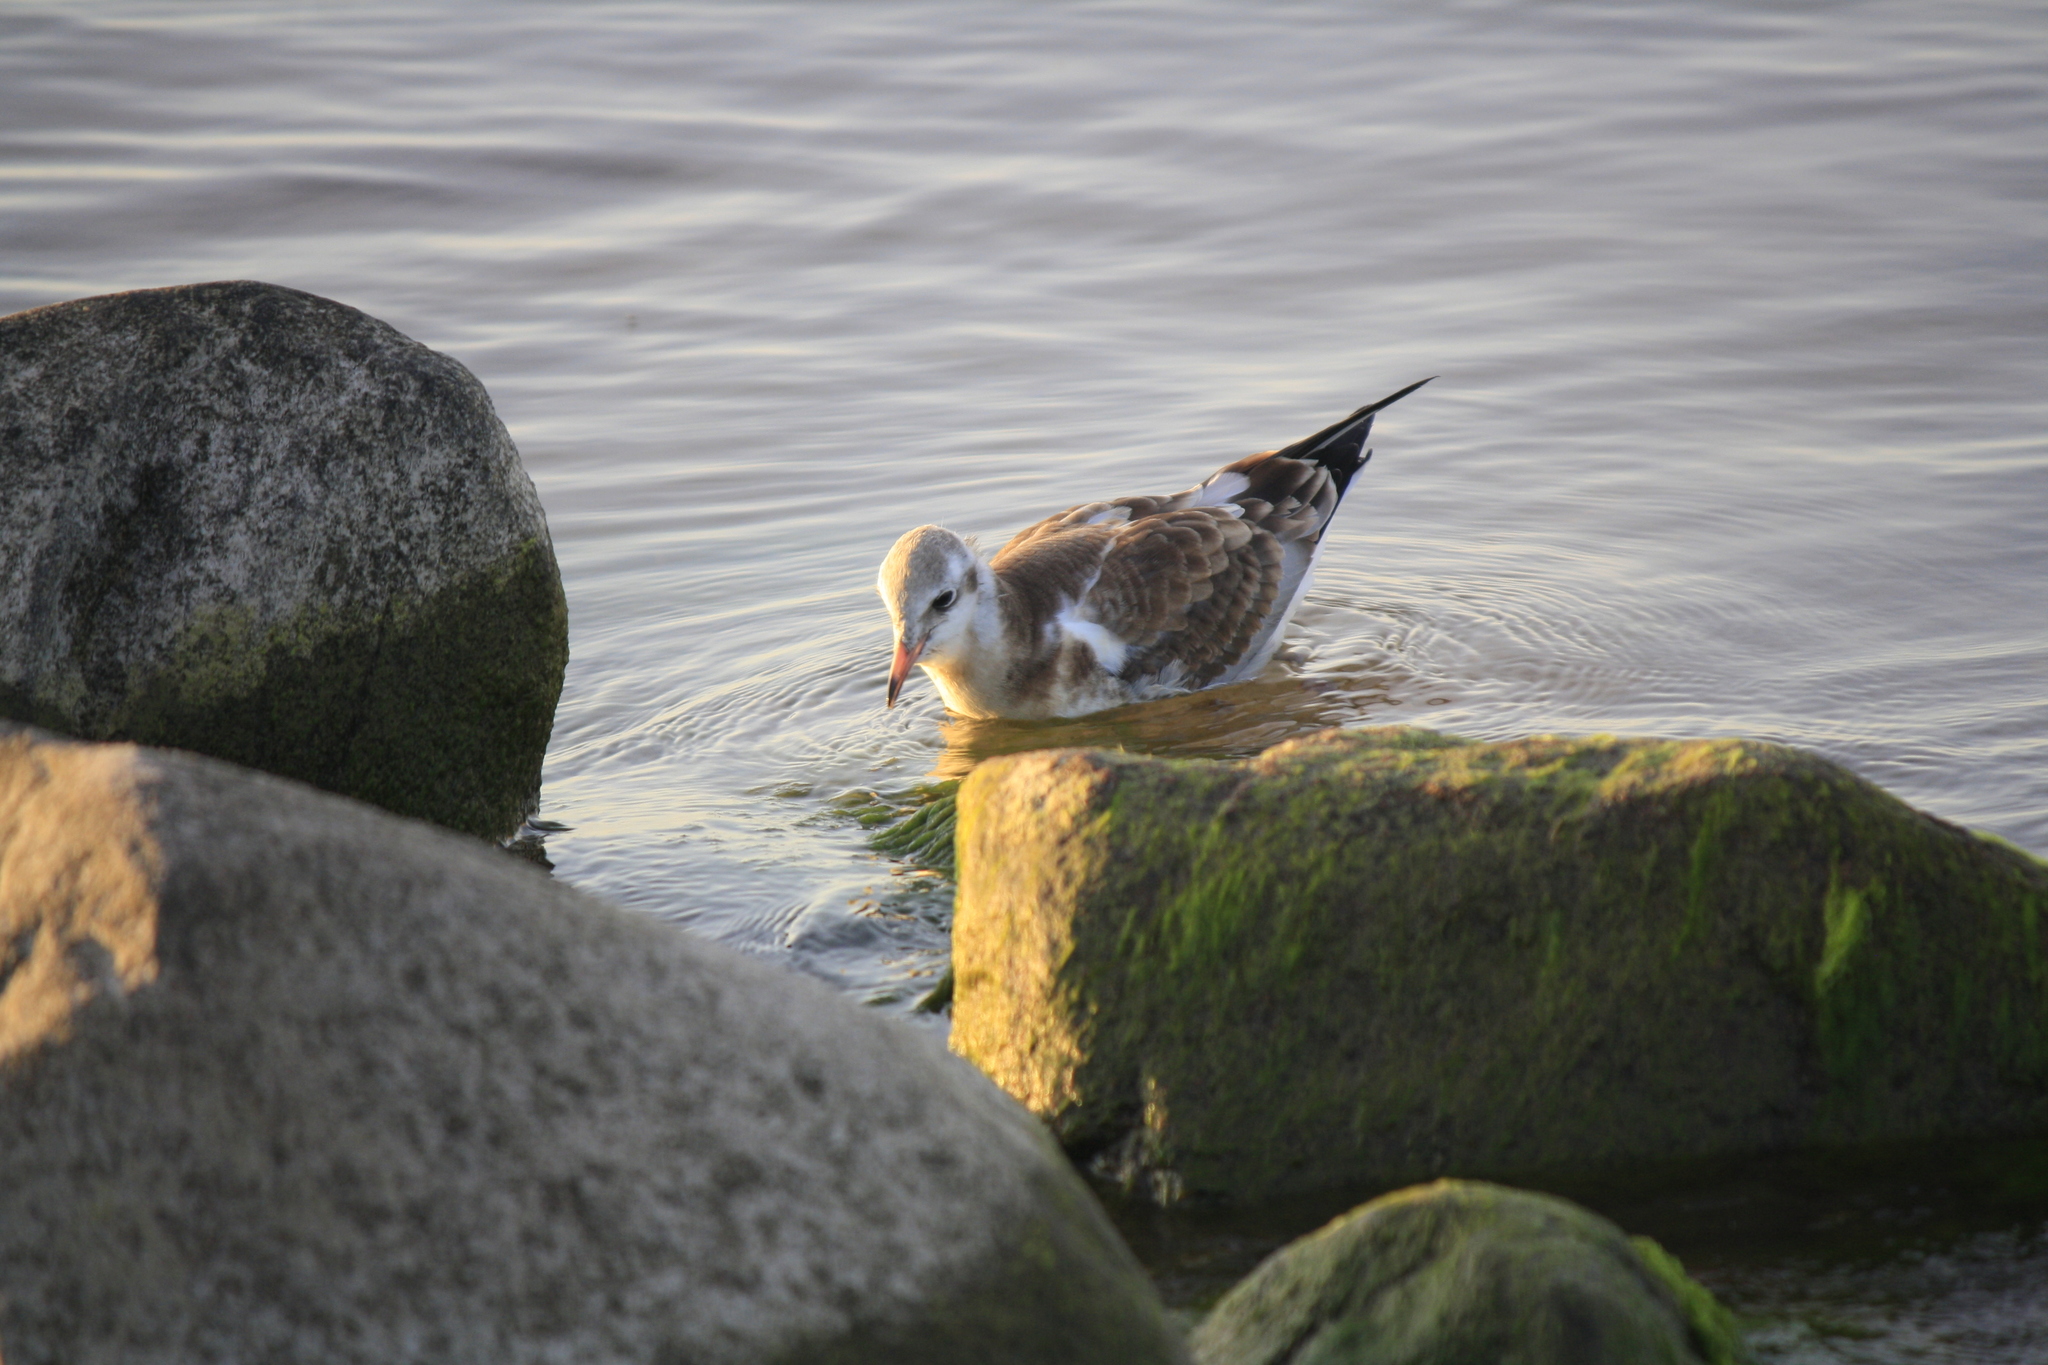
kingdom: Animalia
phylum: Chordata
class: Aves
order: Charadriiformes
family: Laridae
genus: Chroicocephalus
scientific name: Chroicocephalus ridibundus
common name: Black-headed gull
